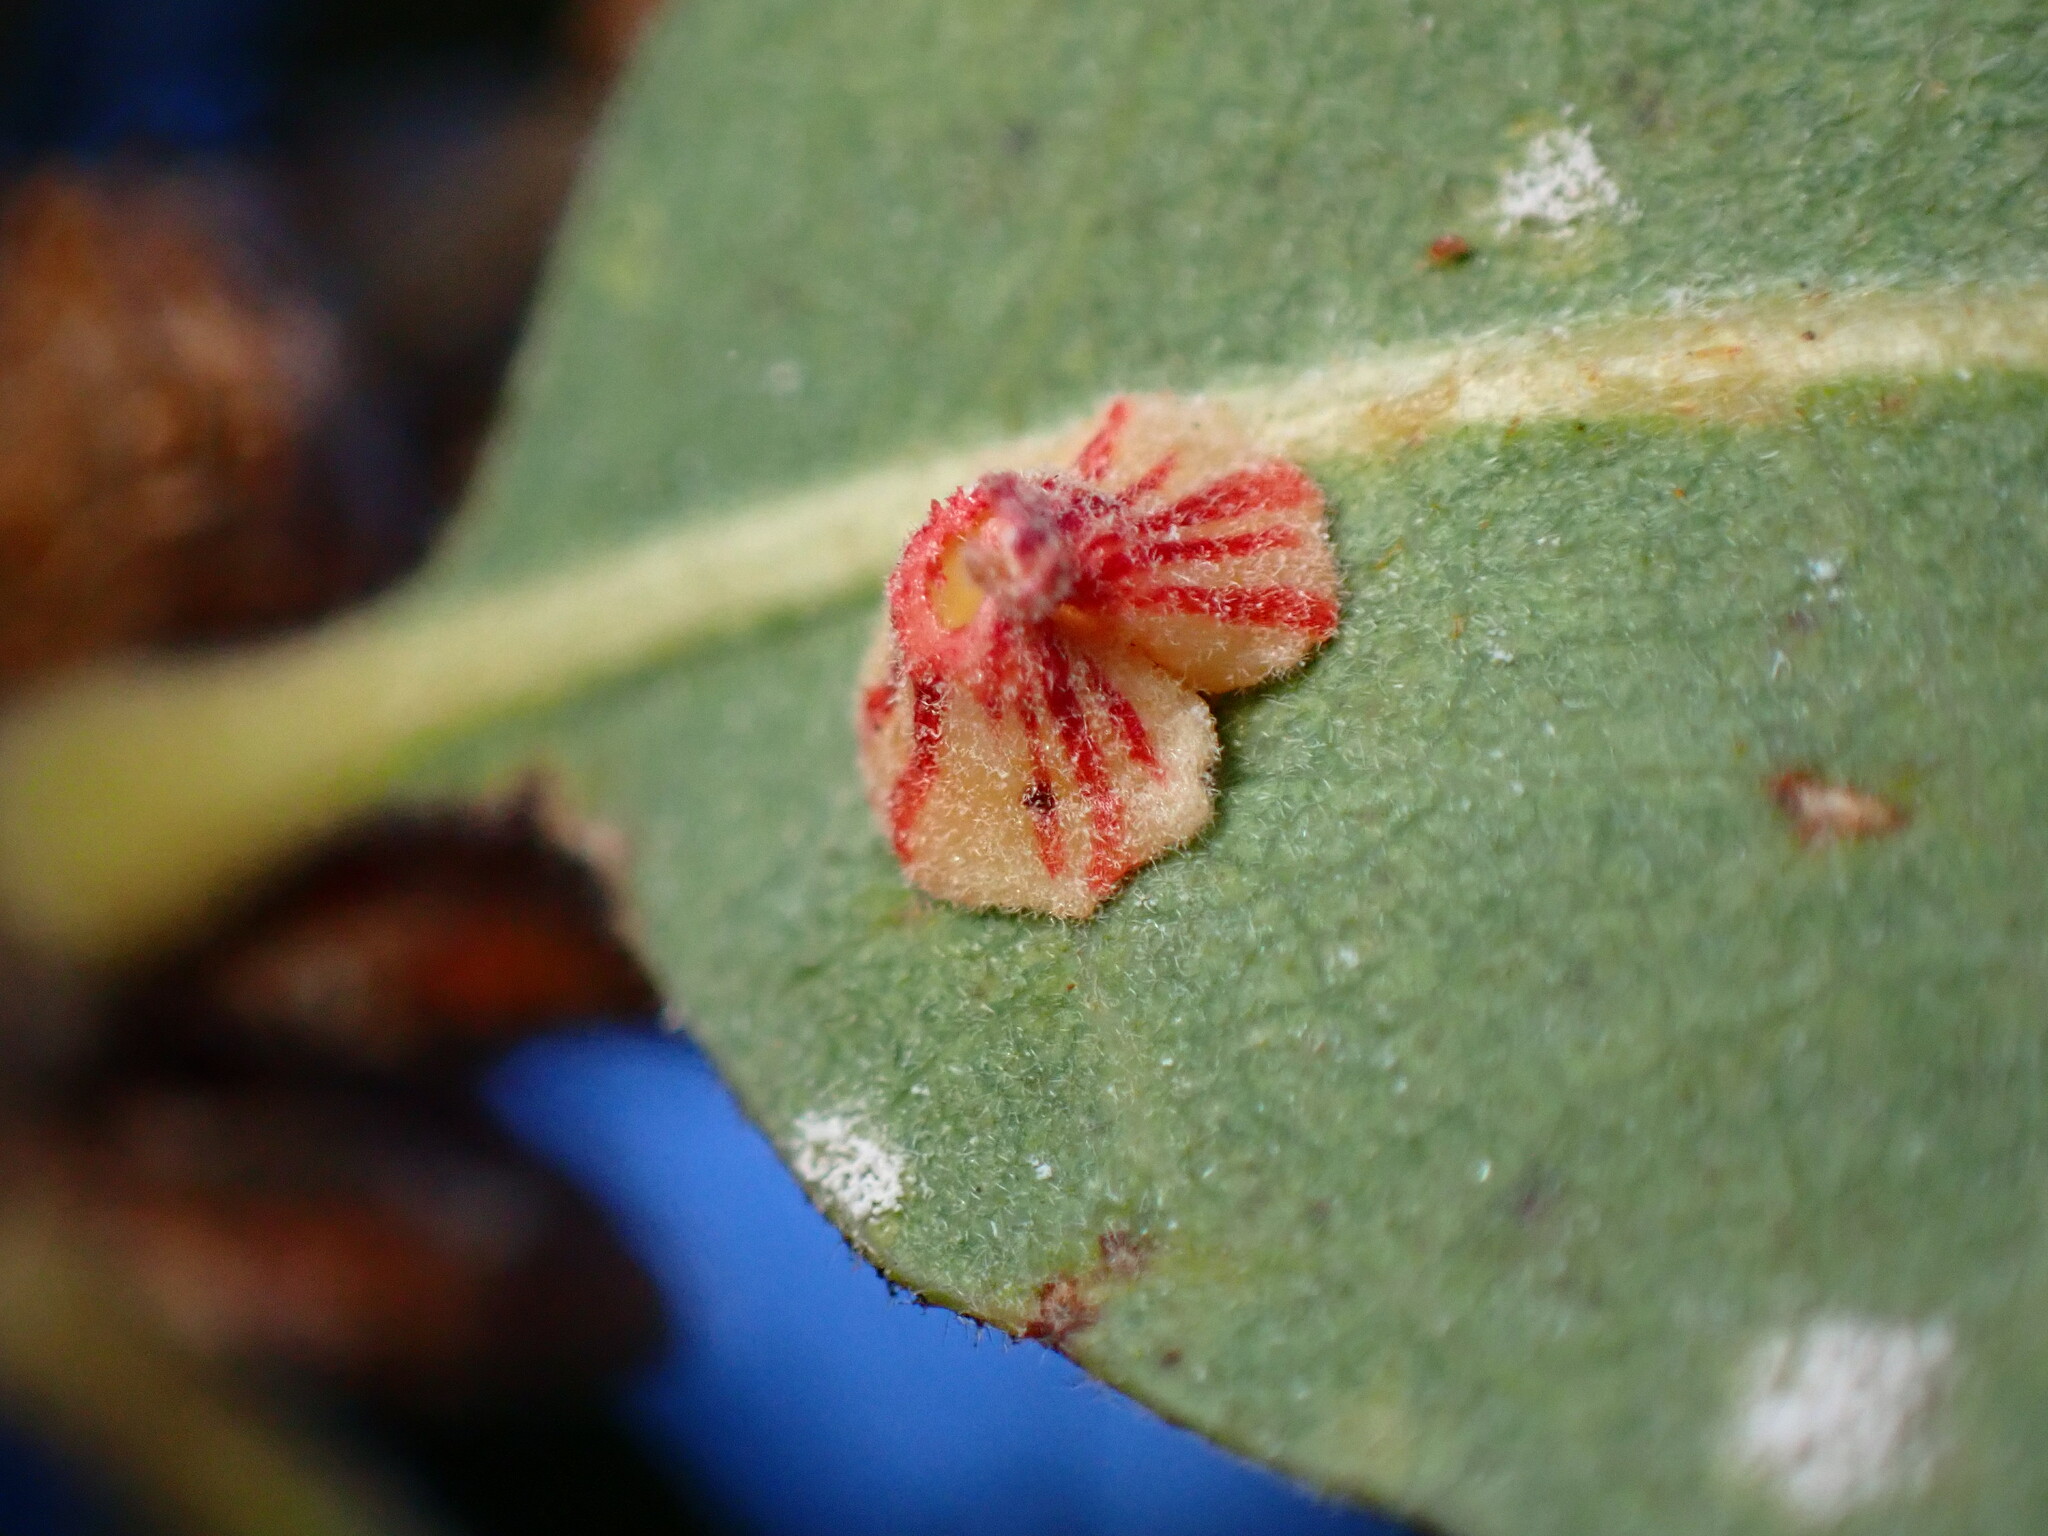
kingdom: Animalia
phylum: Arthropoda
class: Insecta
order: Hymenoptera
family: Cynipidae
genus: Andricus
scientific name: Andricus
